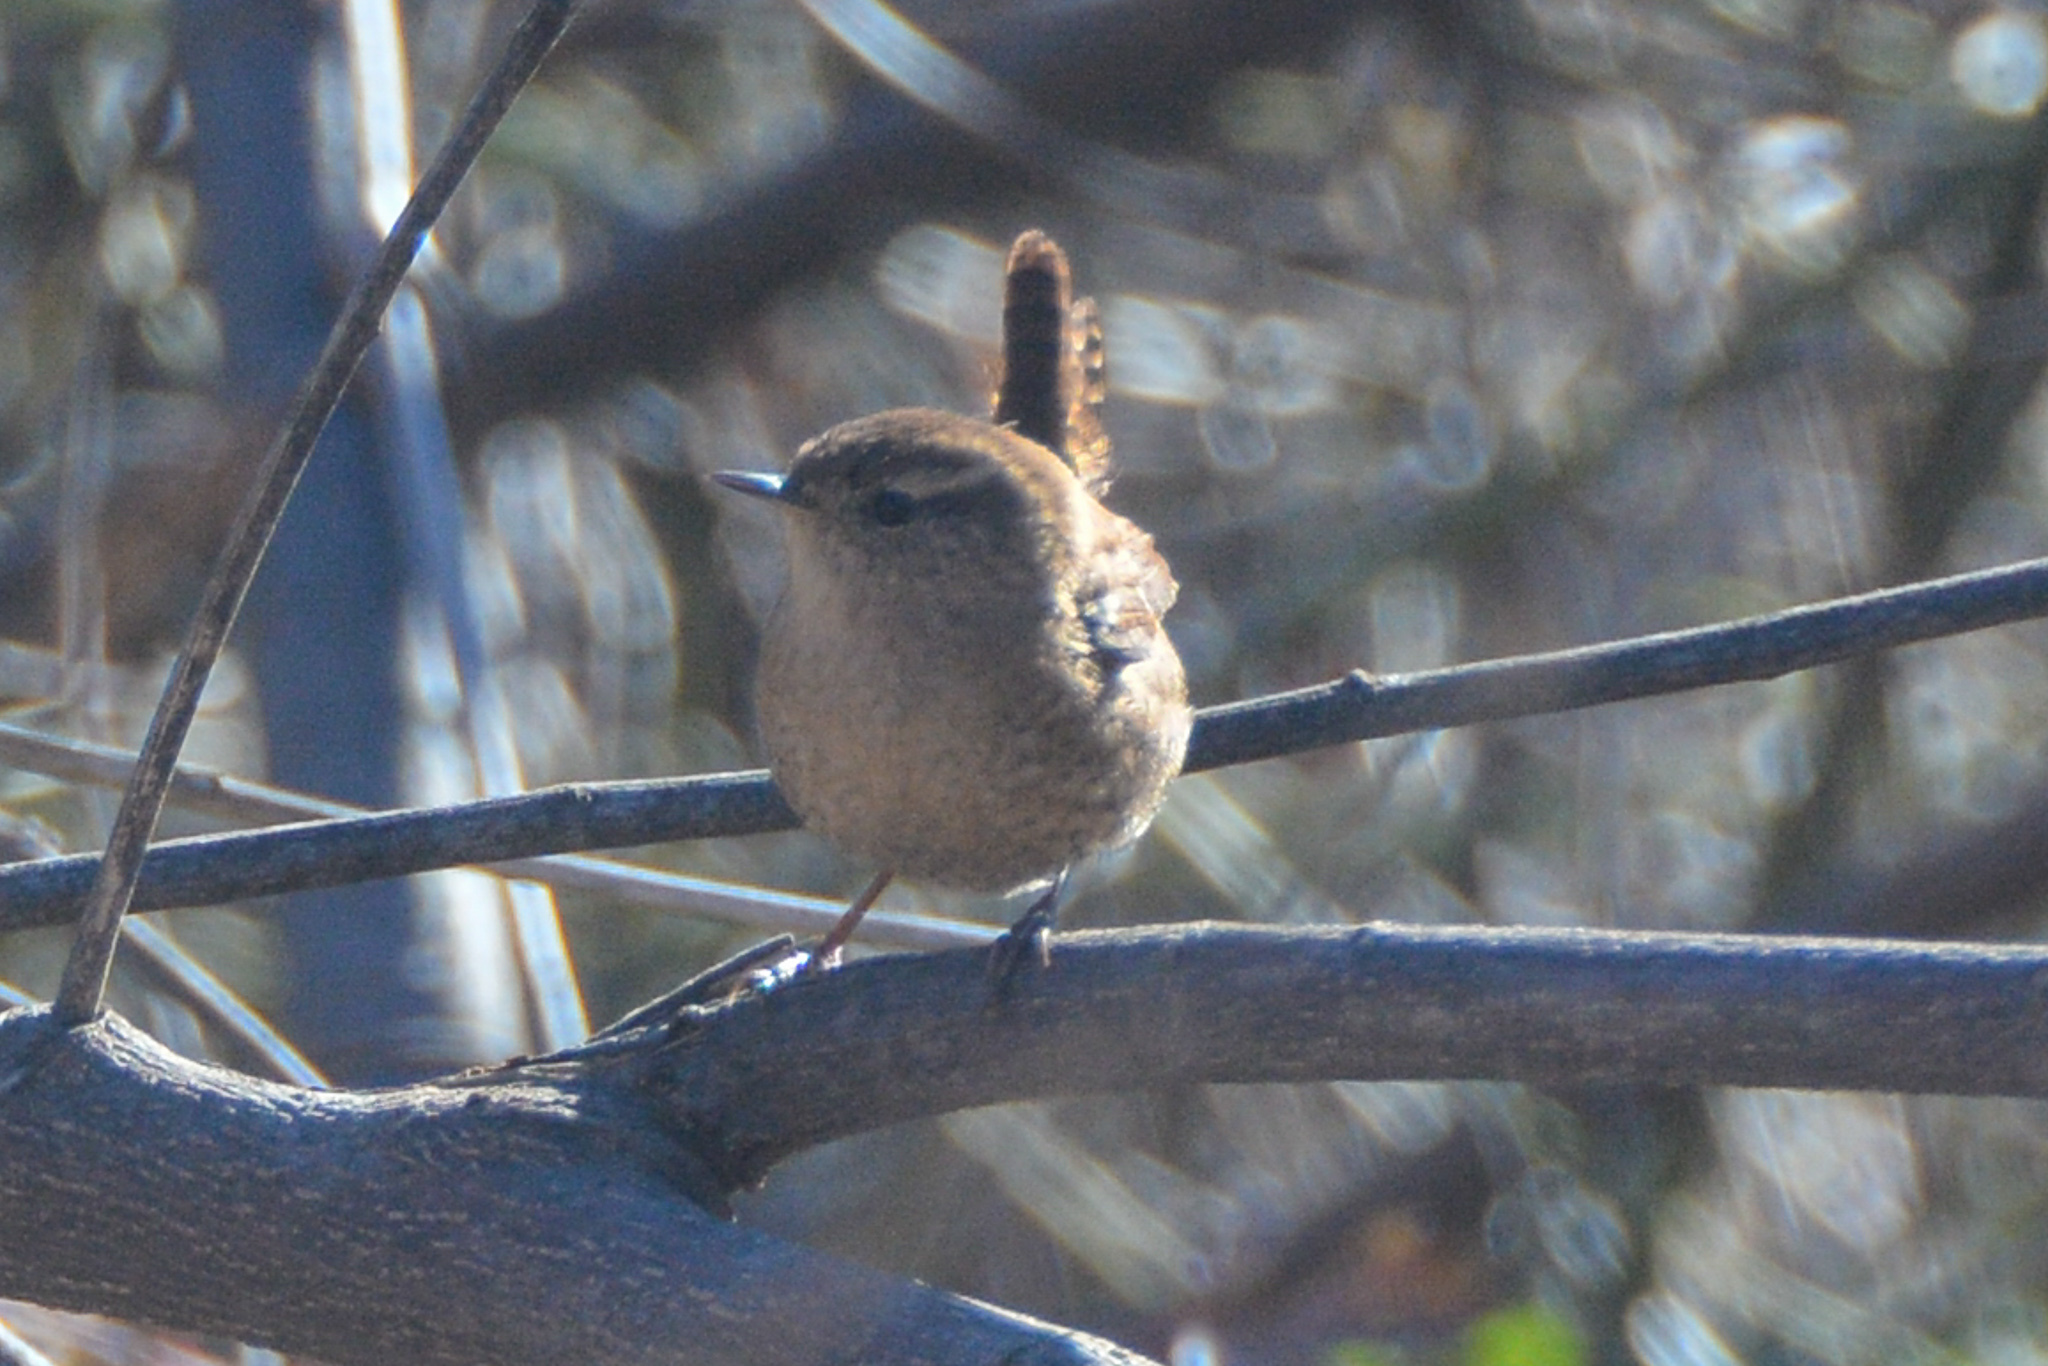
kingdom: Animalia
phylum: Chordata
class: Aves
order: Passeriformes
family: Troglodytidae
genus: Troglodytes
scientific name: Troglodytes hiemalis
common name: Winter wren
